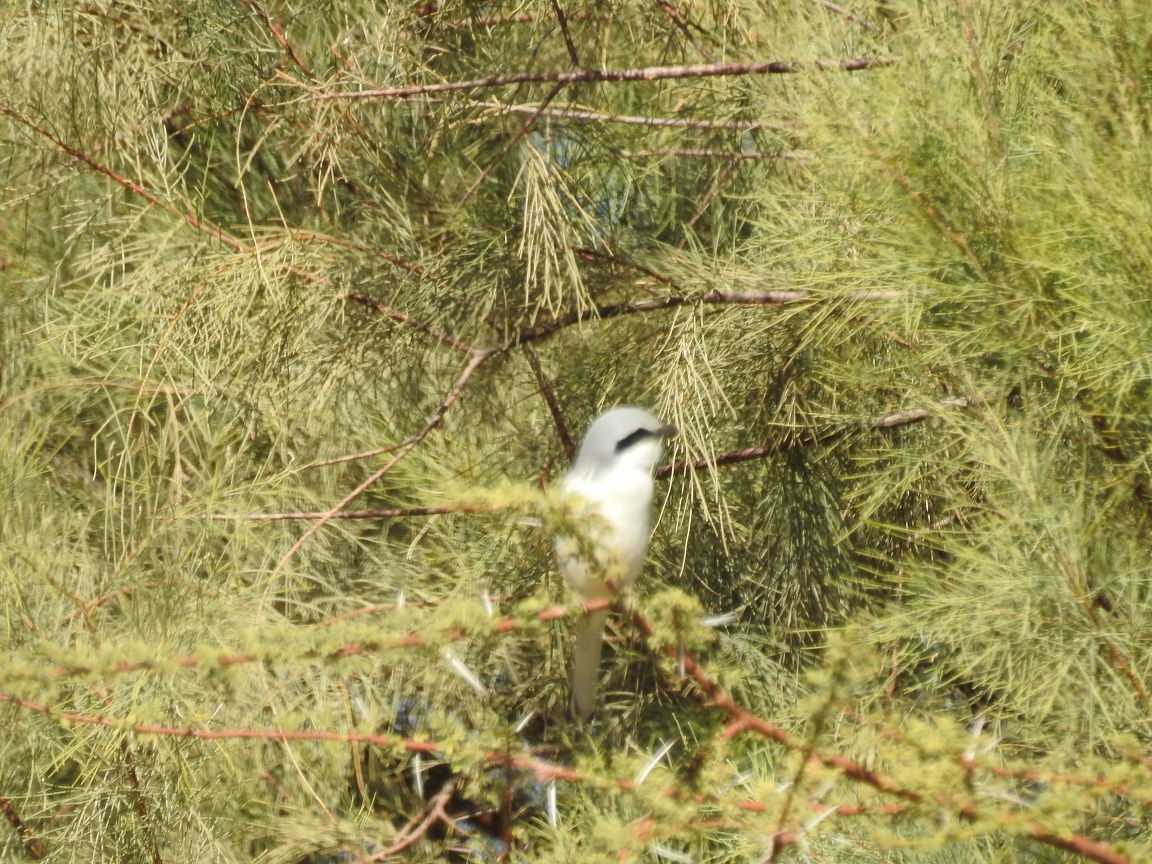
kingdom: Animalia
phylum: Chordata
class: Aves
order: Passeriformes
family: Laniidae
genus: Lanius
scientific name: Lanius excubitor
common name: Great grey shrike
